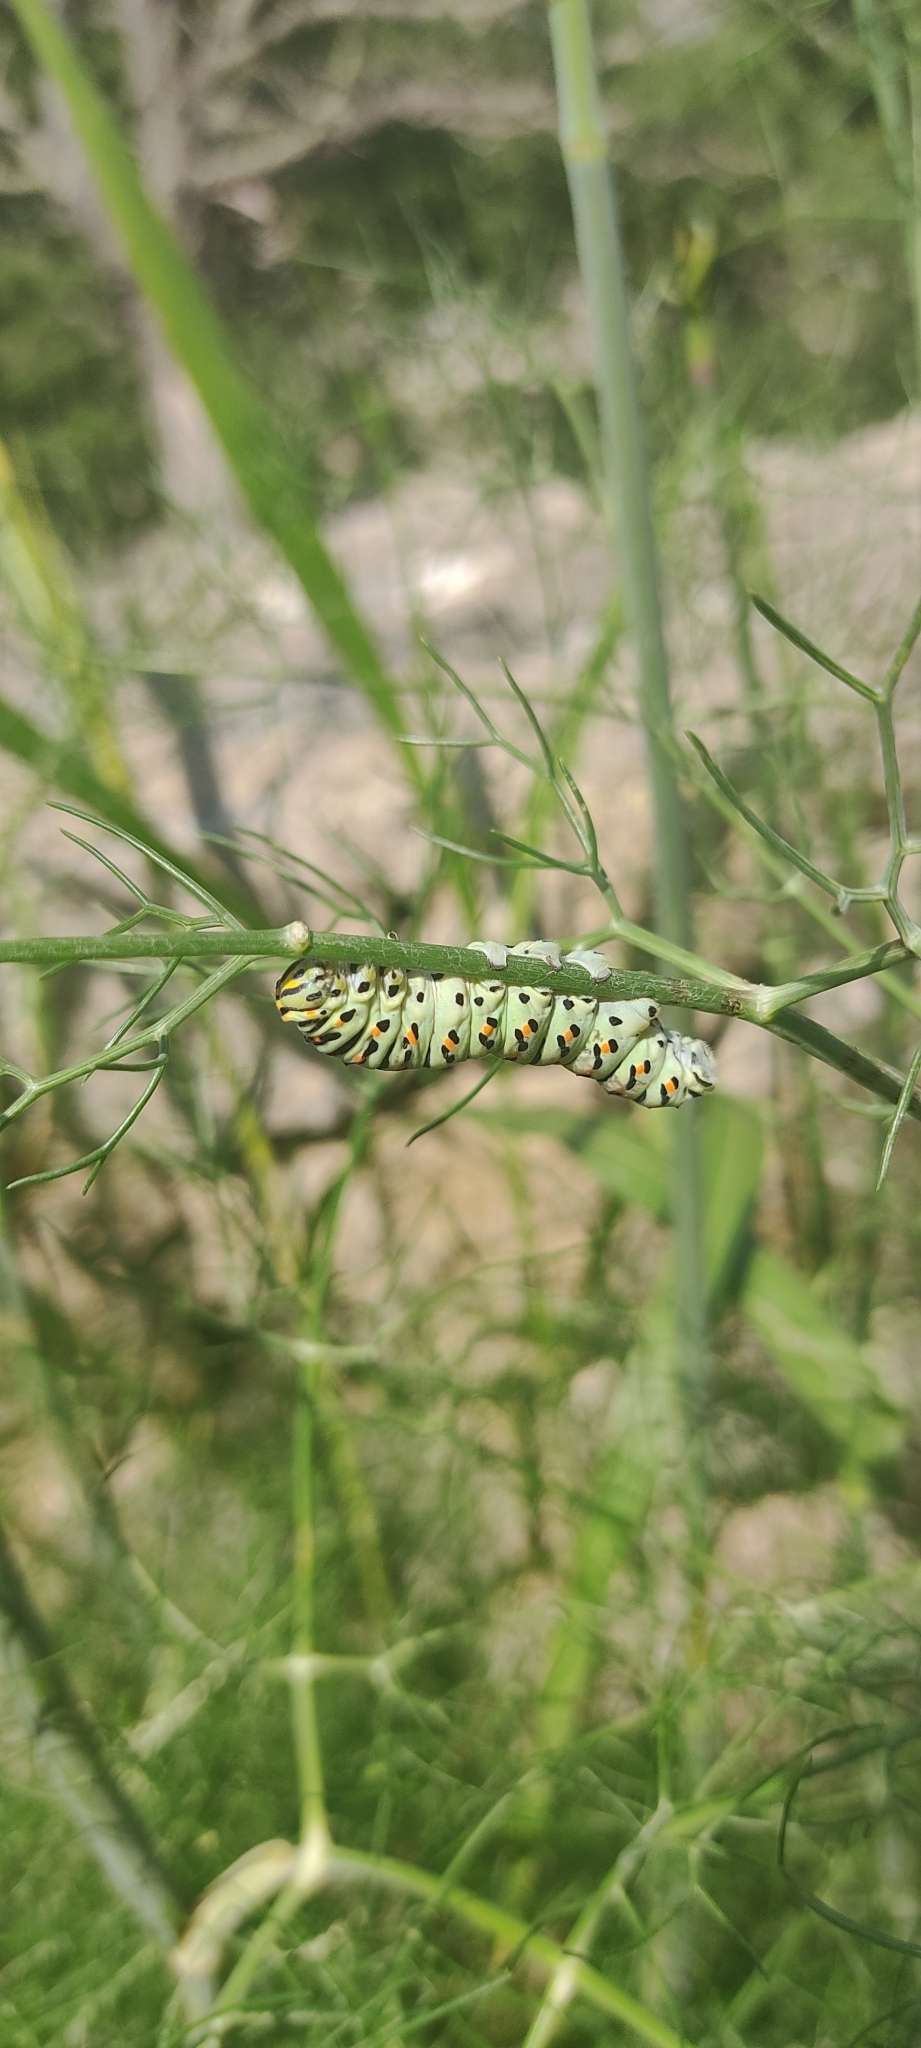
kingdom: Animalia
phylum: Arthropoda
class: Insecta
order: Lepidoptera
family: Papilionidae
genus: Papilio
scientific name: Papilio machaon
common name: Swallowtail
